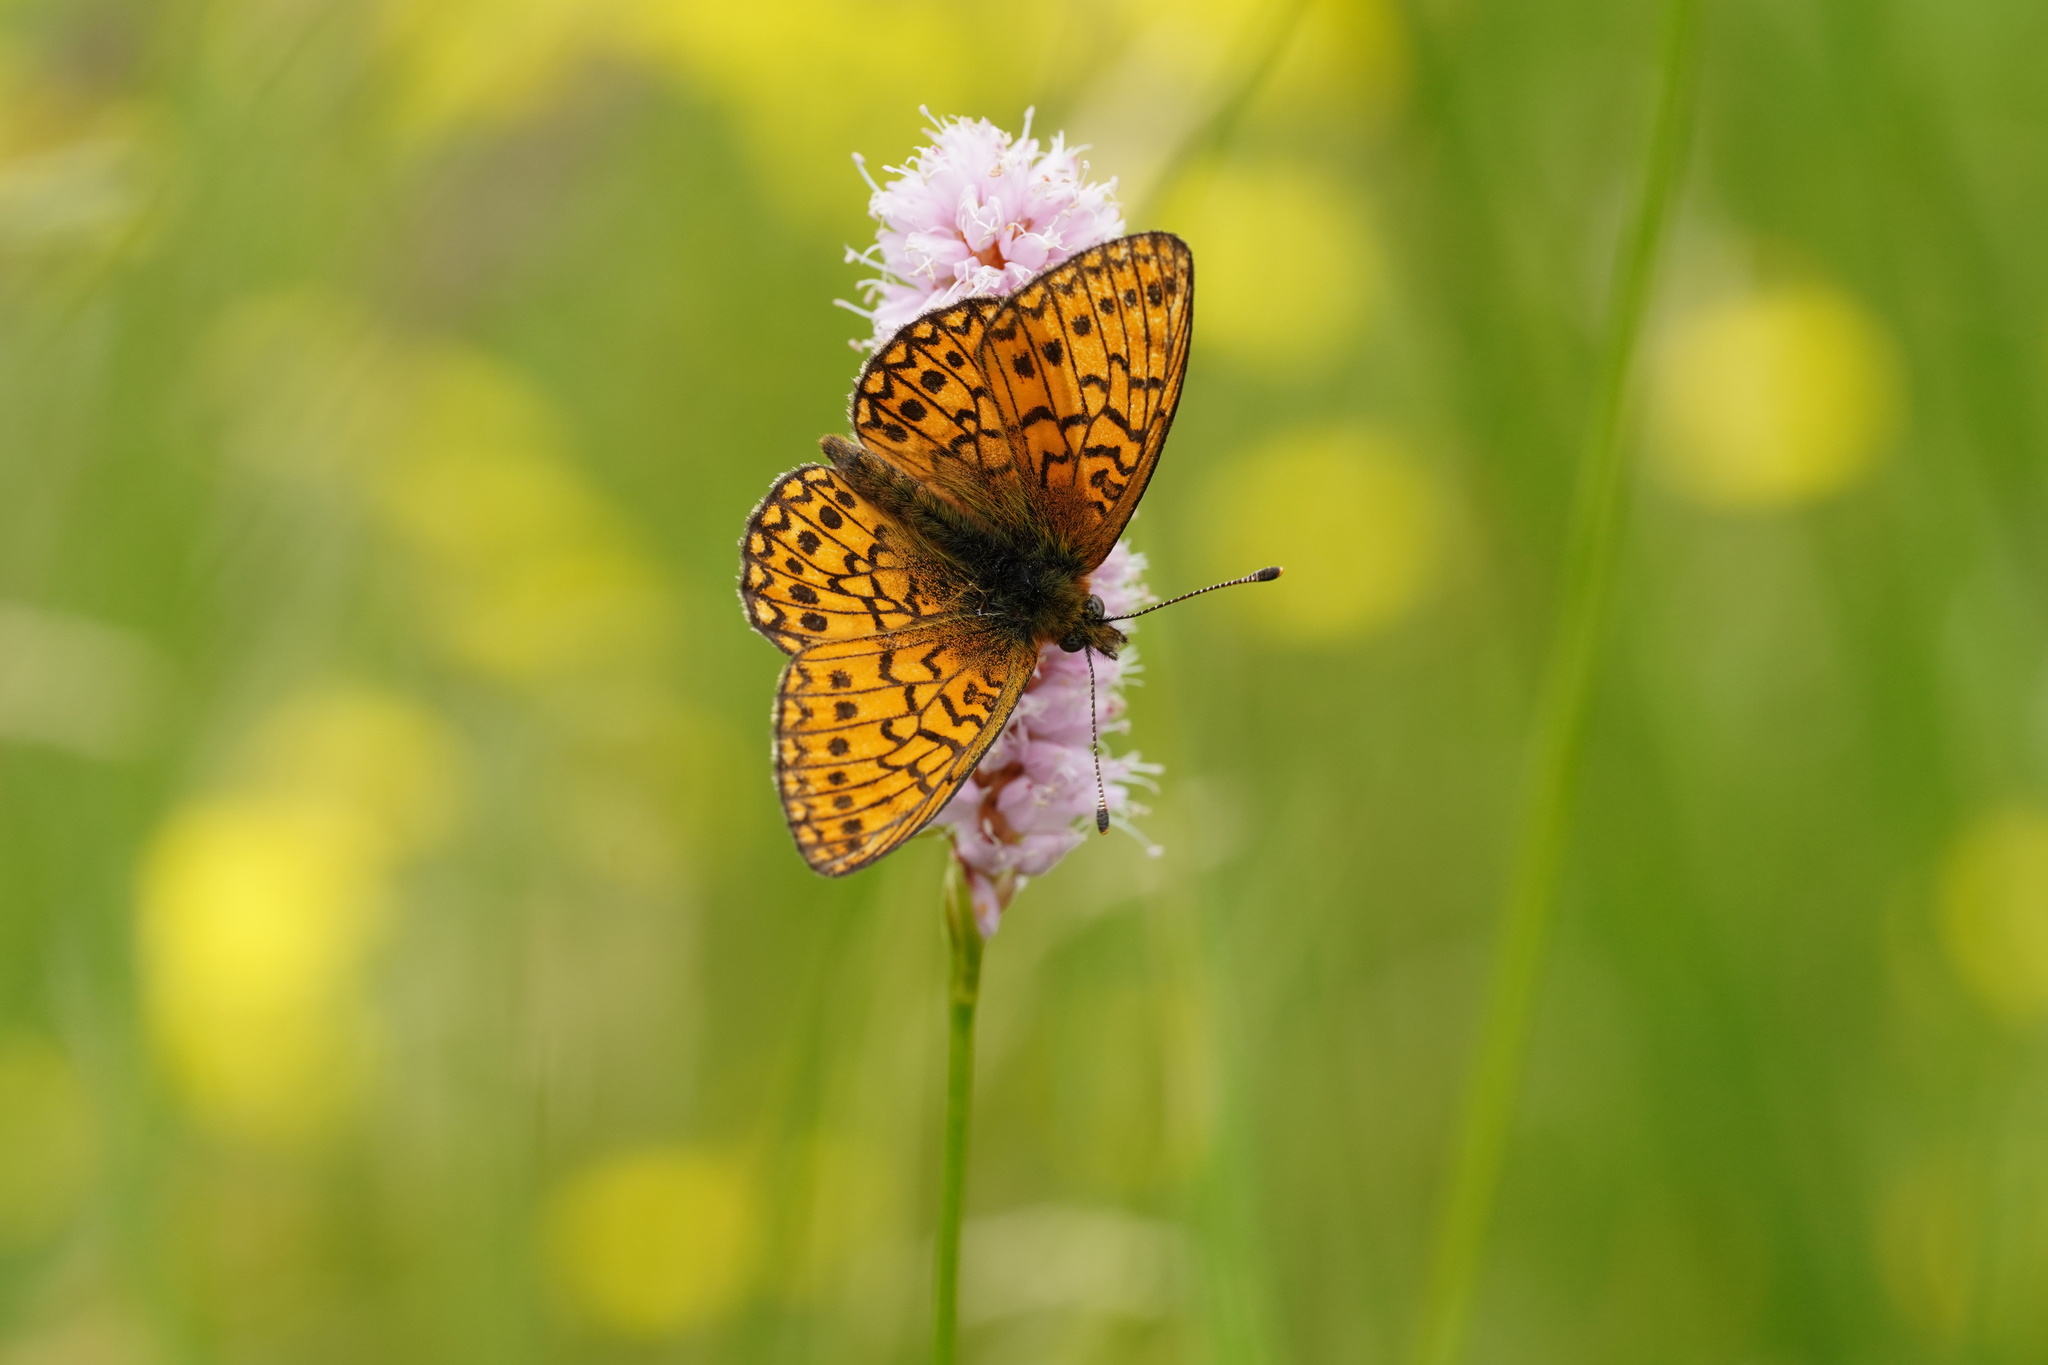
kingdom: Animalia
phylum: Arthropoda
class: Insecta
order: Lepidoptera
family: Nymphalidae
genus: Boloria
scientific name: Boloria eunomia
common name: Bog fritillary
